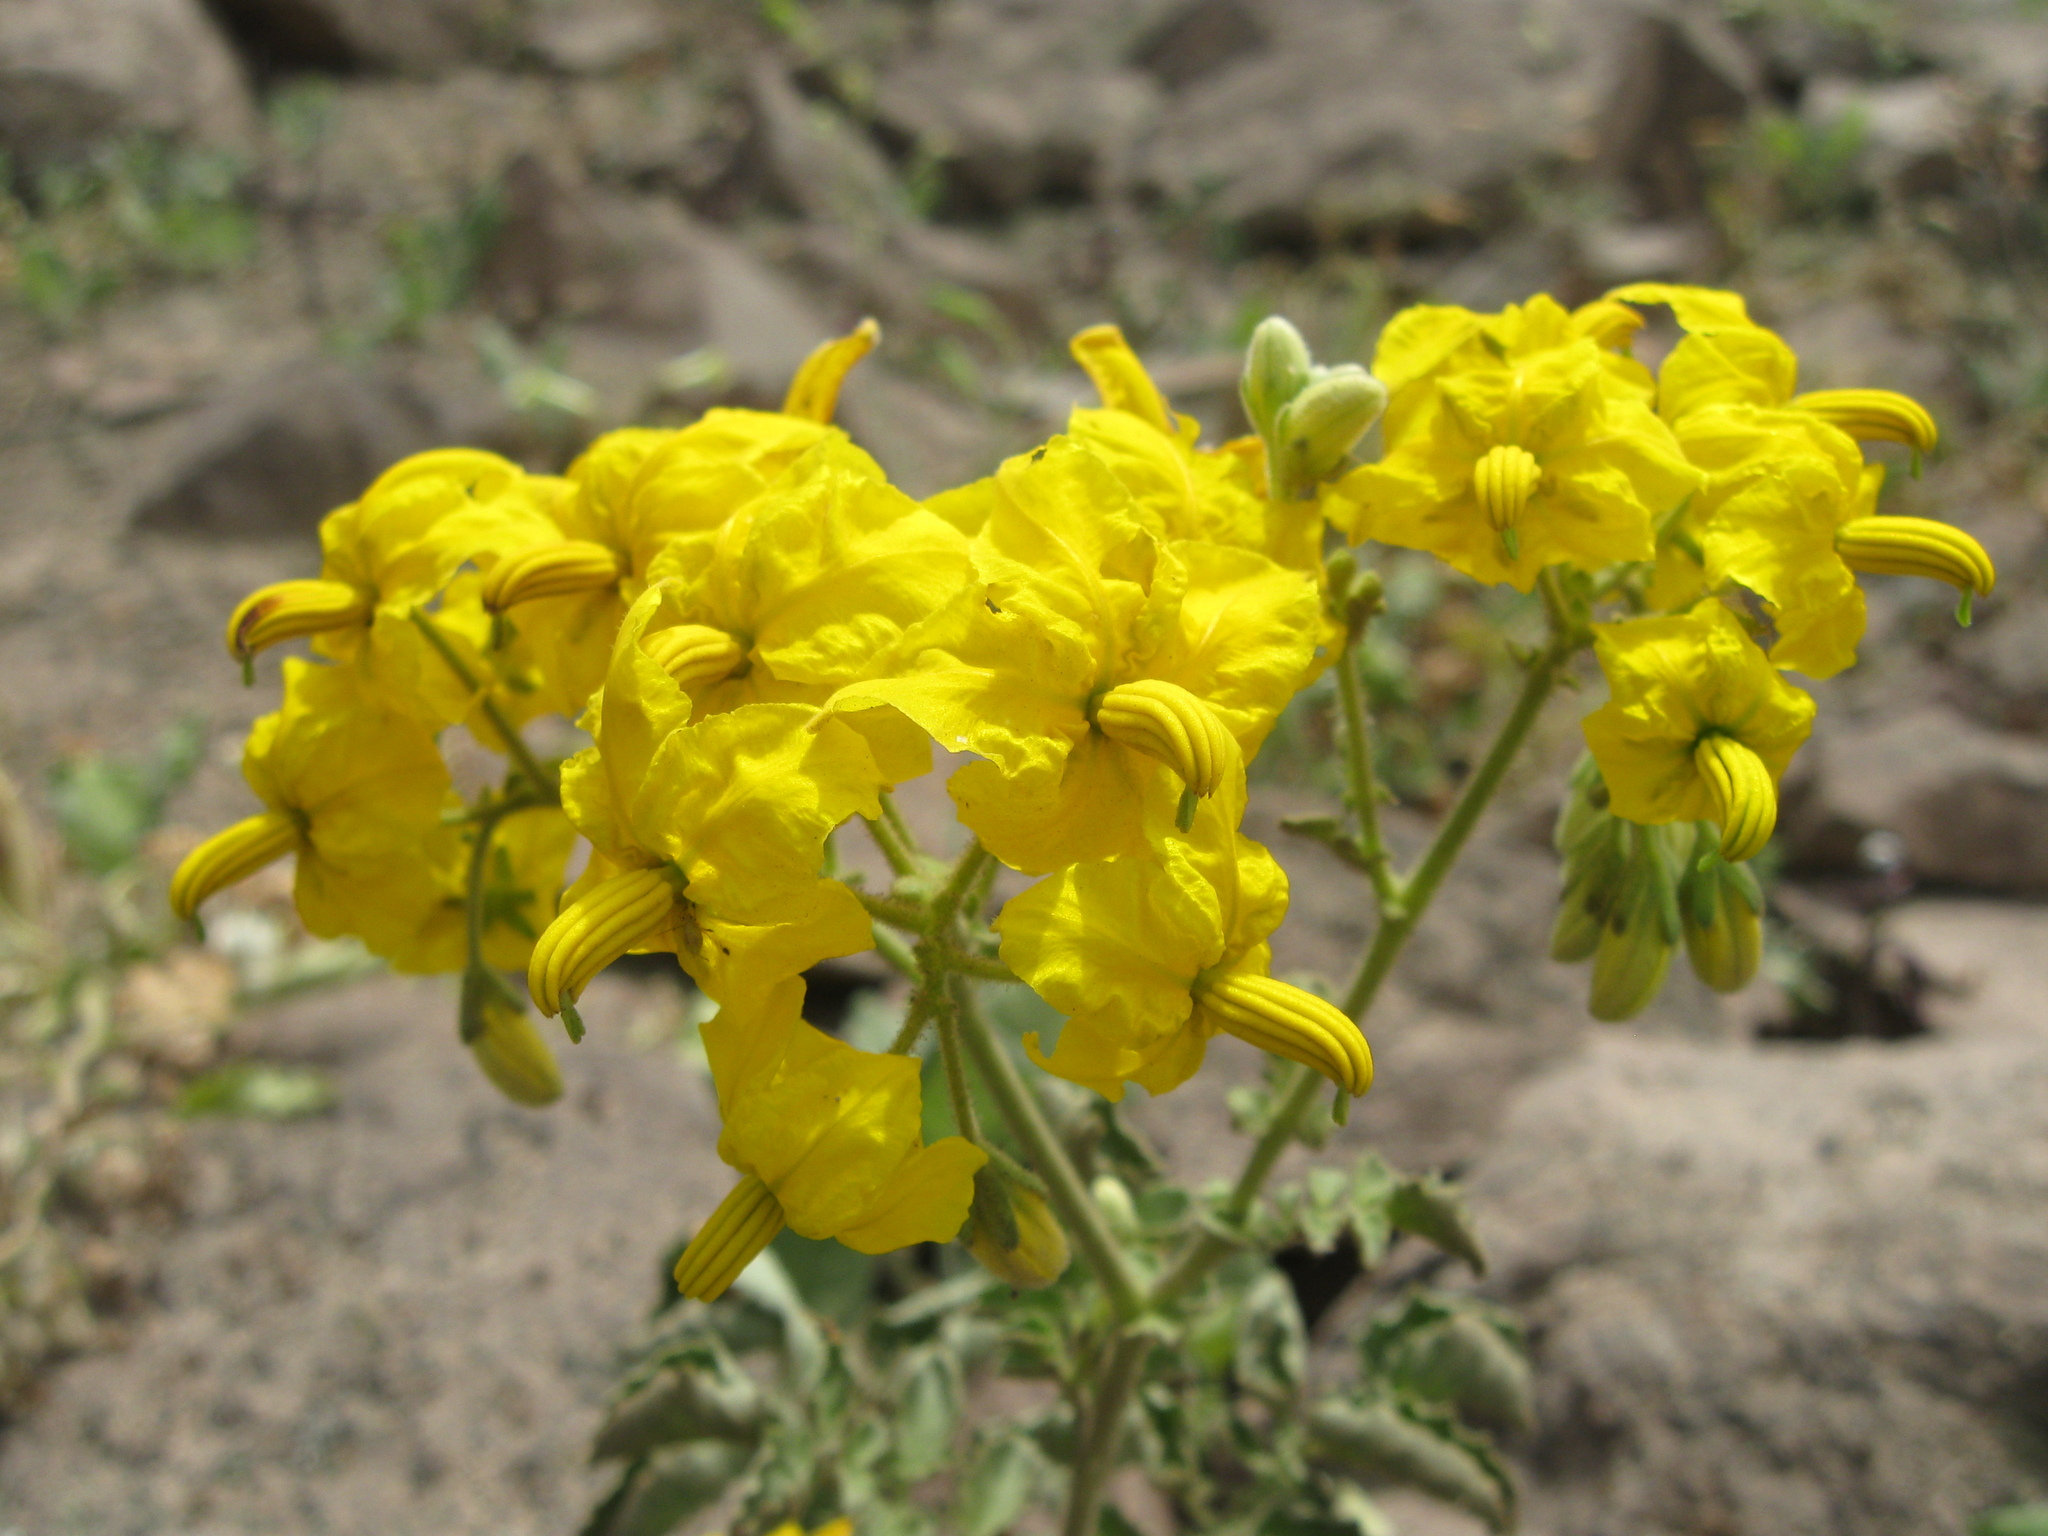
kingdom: Plantae
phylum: Tracheophyta
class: Magnoliopsida
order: Solanales
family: Solanaceae
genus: Solanum
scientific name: Solanum pennellii
